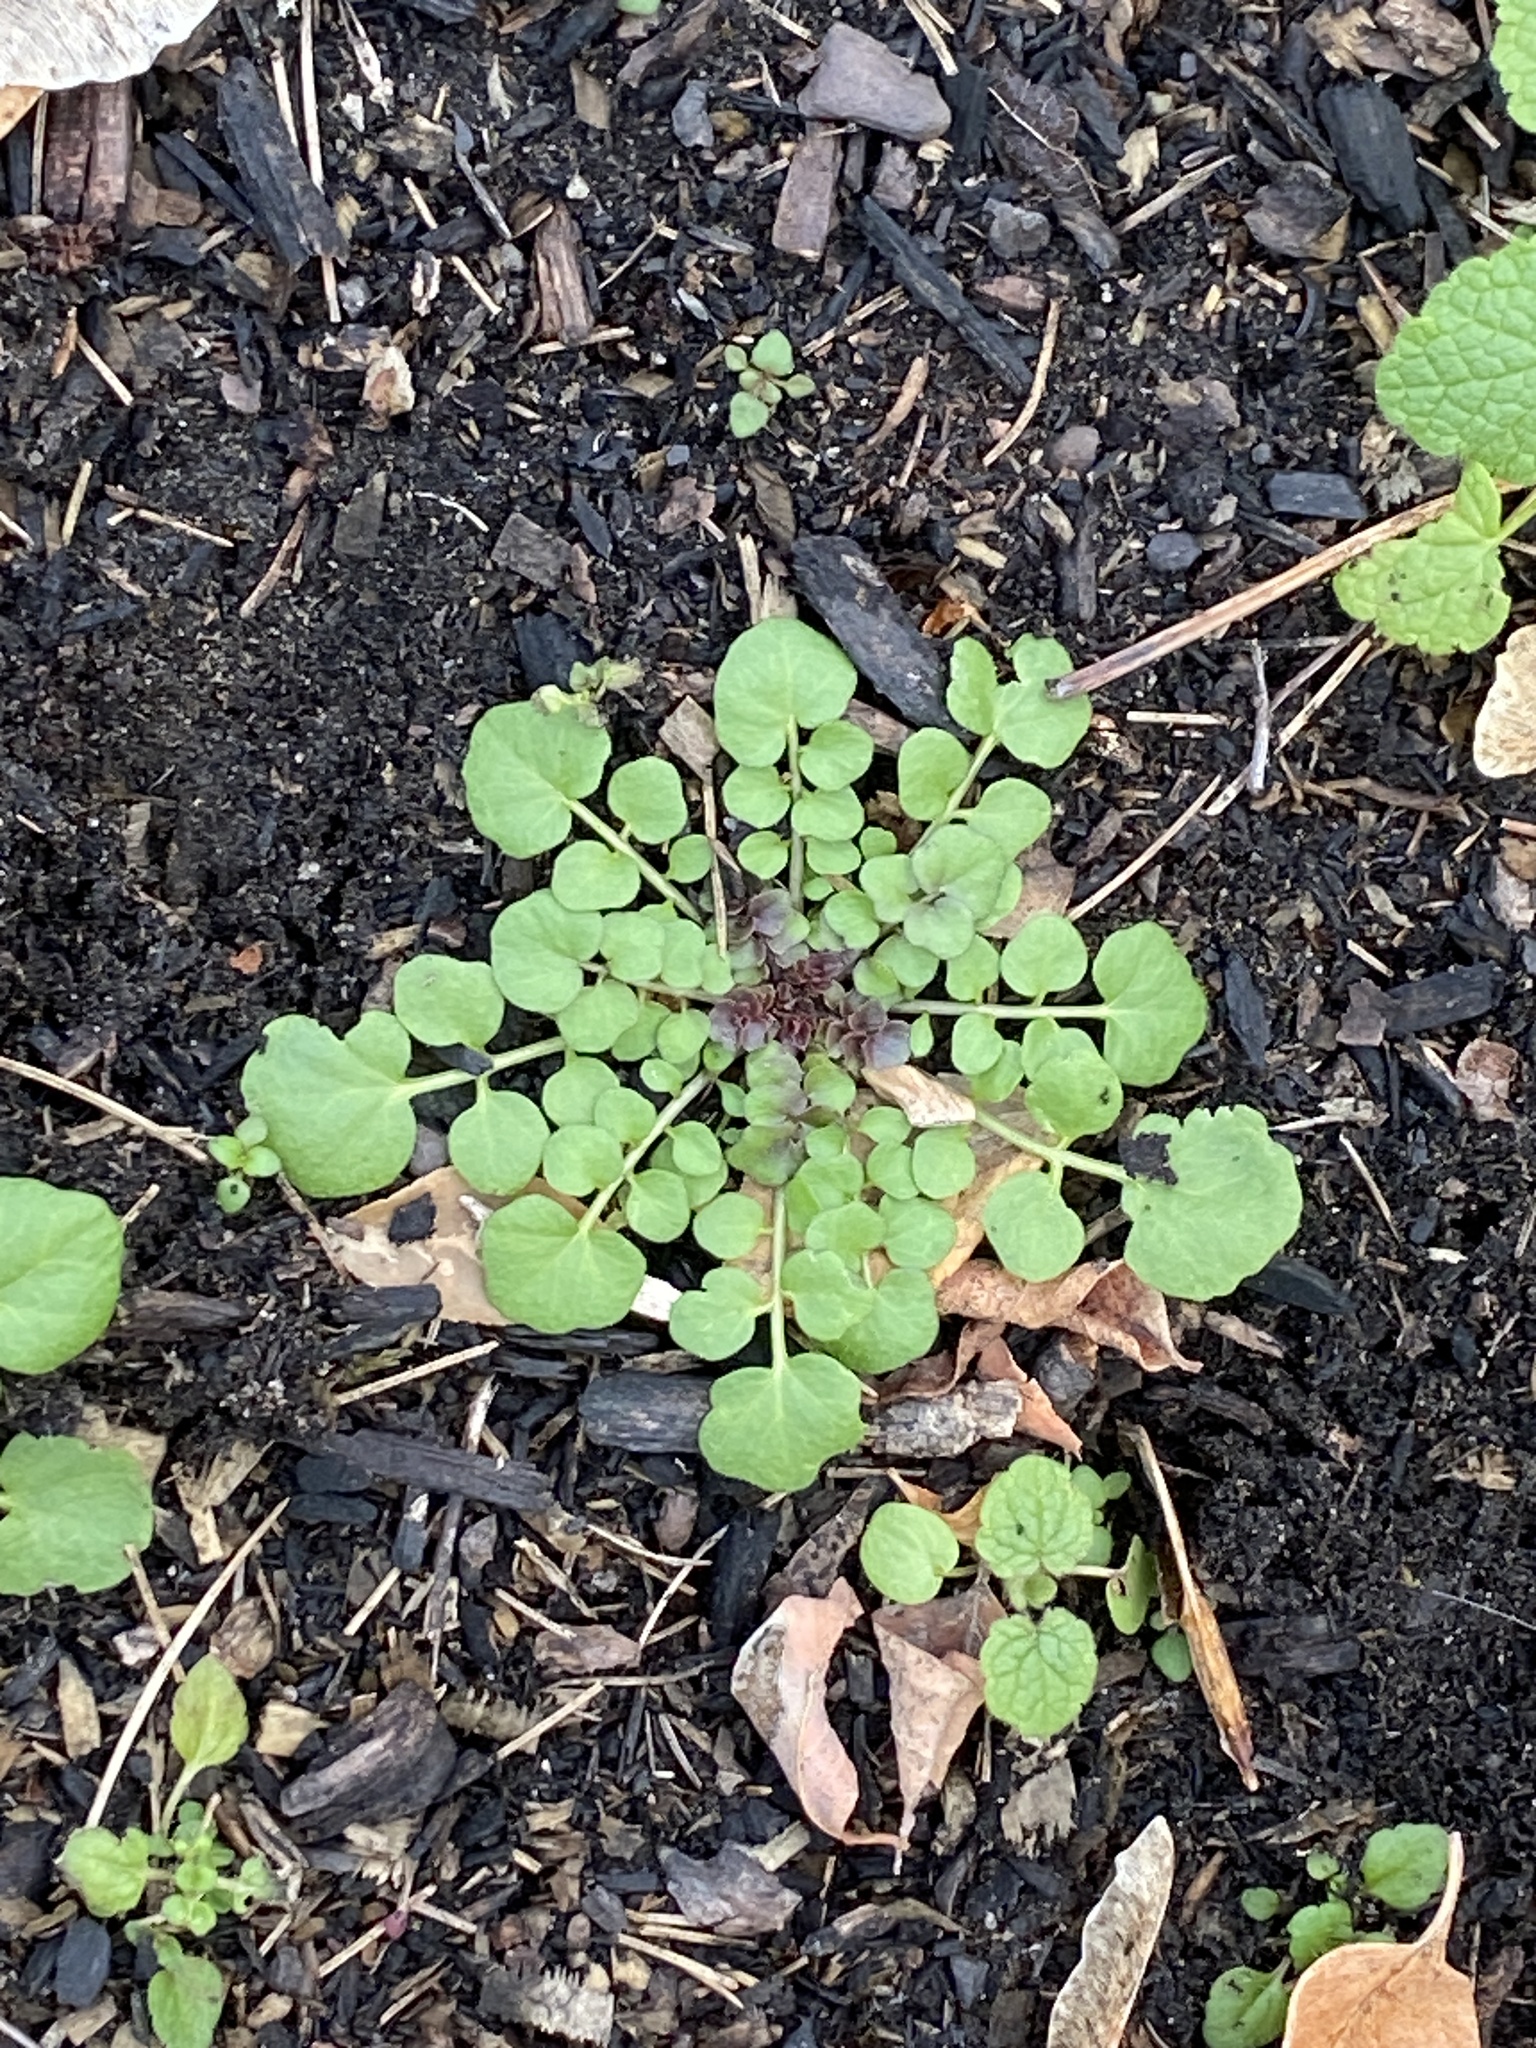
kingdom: Plantae
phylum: Tracheophyta
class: Magnoliopsida
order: Brassicales
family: Brassicaceae
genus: Cardamine
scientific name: Cardamine hirsuta
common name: Hairy bittercress
